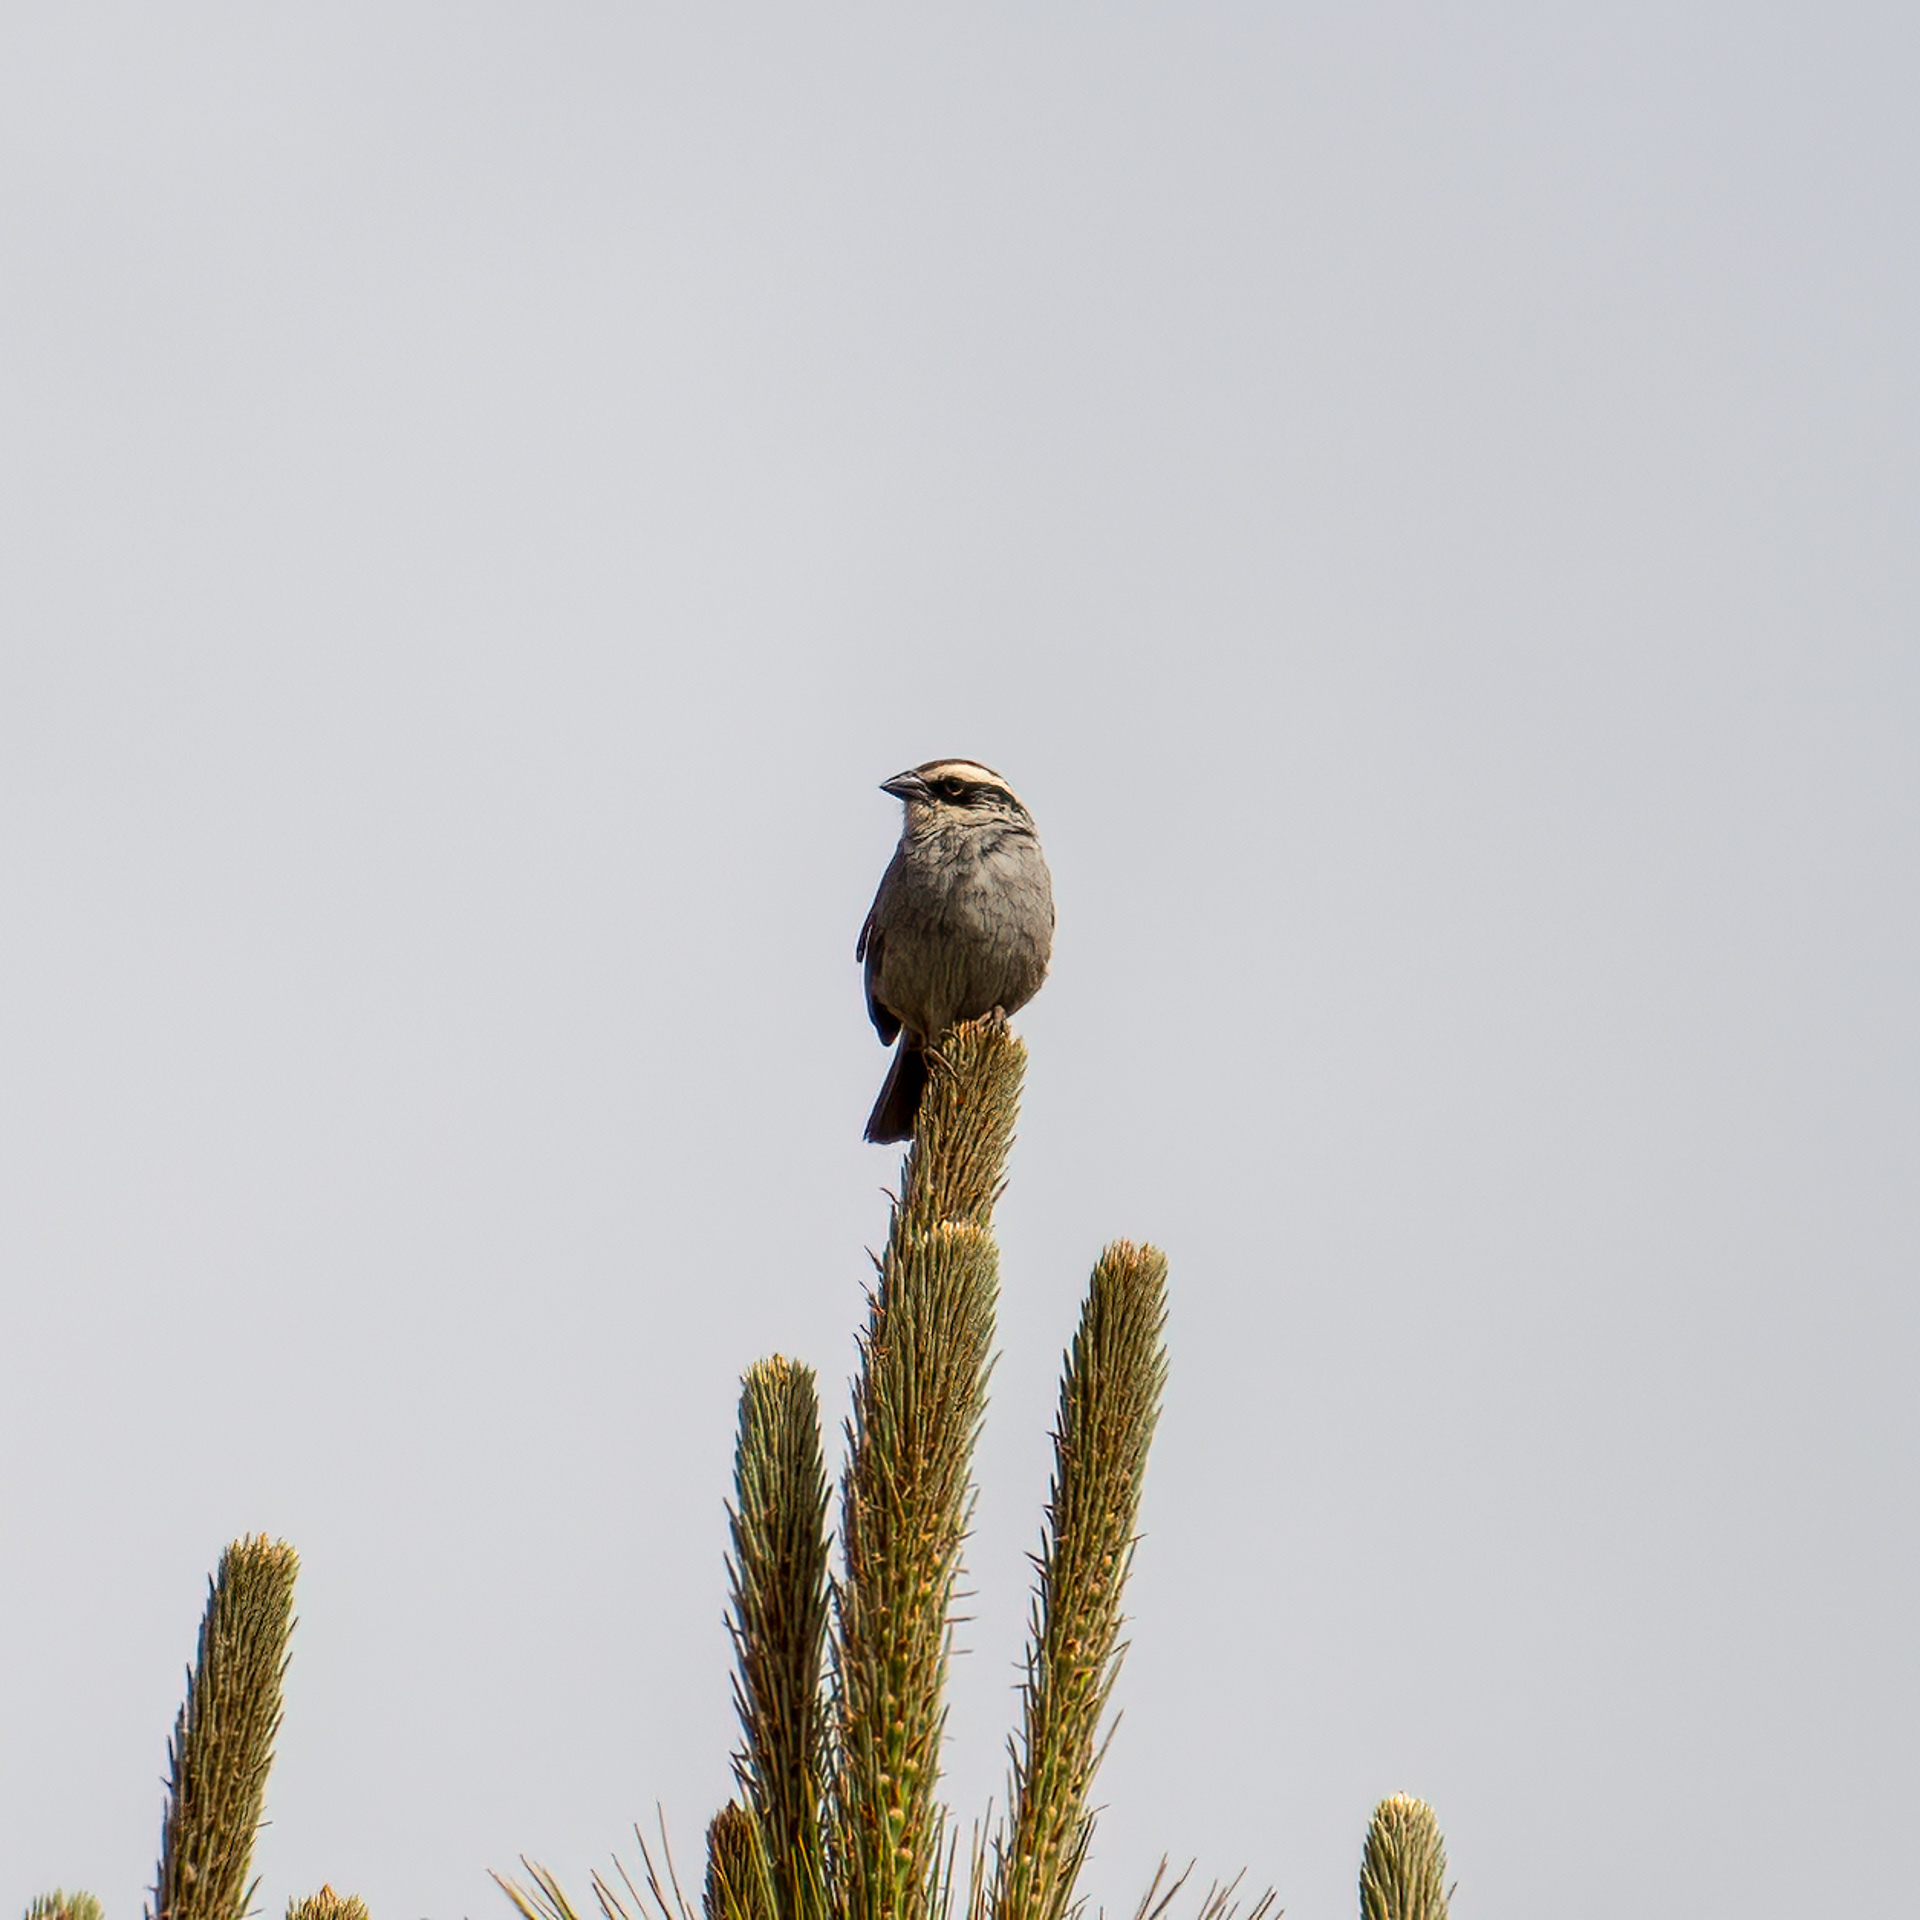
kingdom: Animalia
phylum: Chordata
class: Aves
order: Passeriformes
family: Passerellidae
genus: Oriturus
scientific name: Oriturus superciliosus
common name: Striped sparrow
